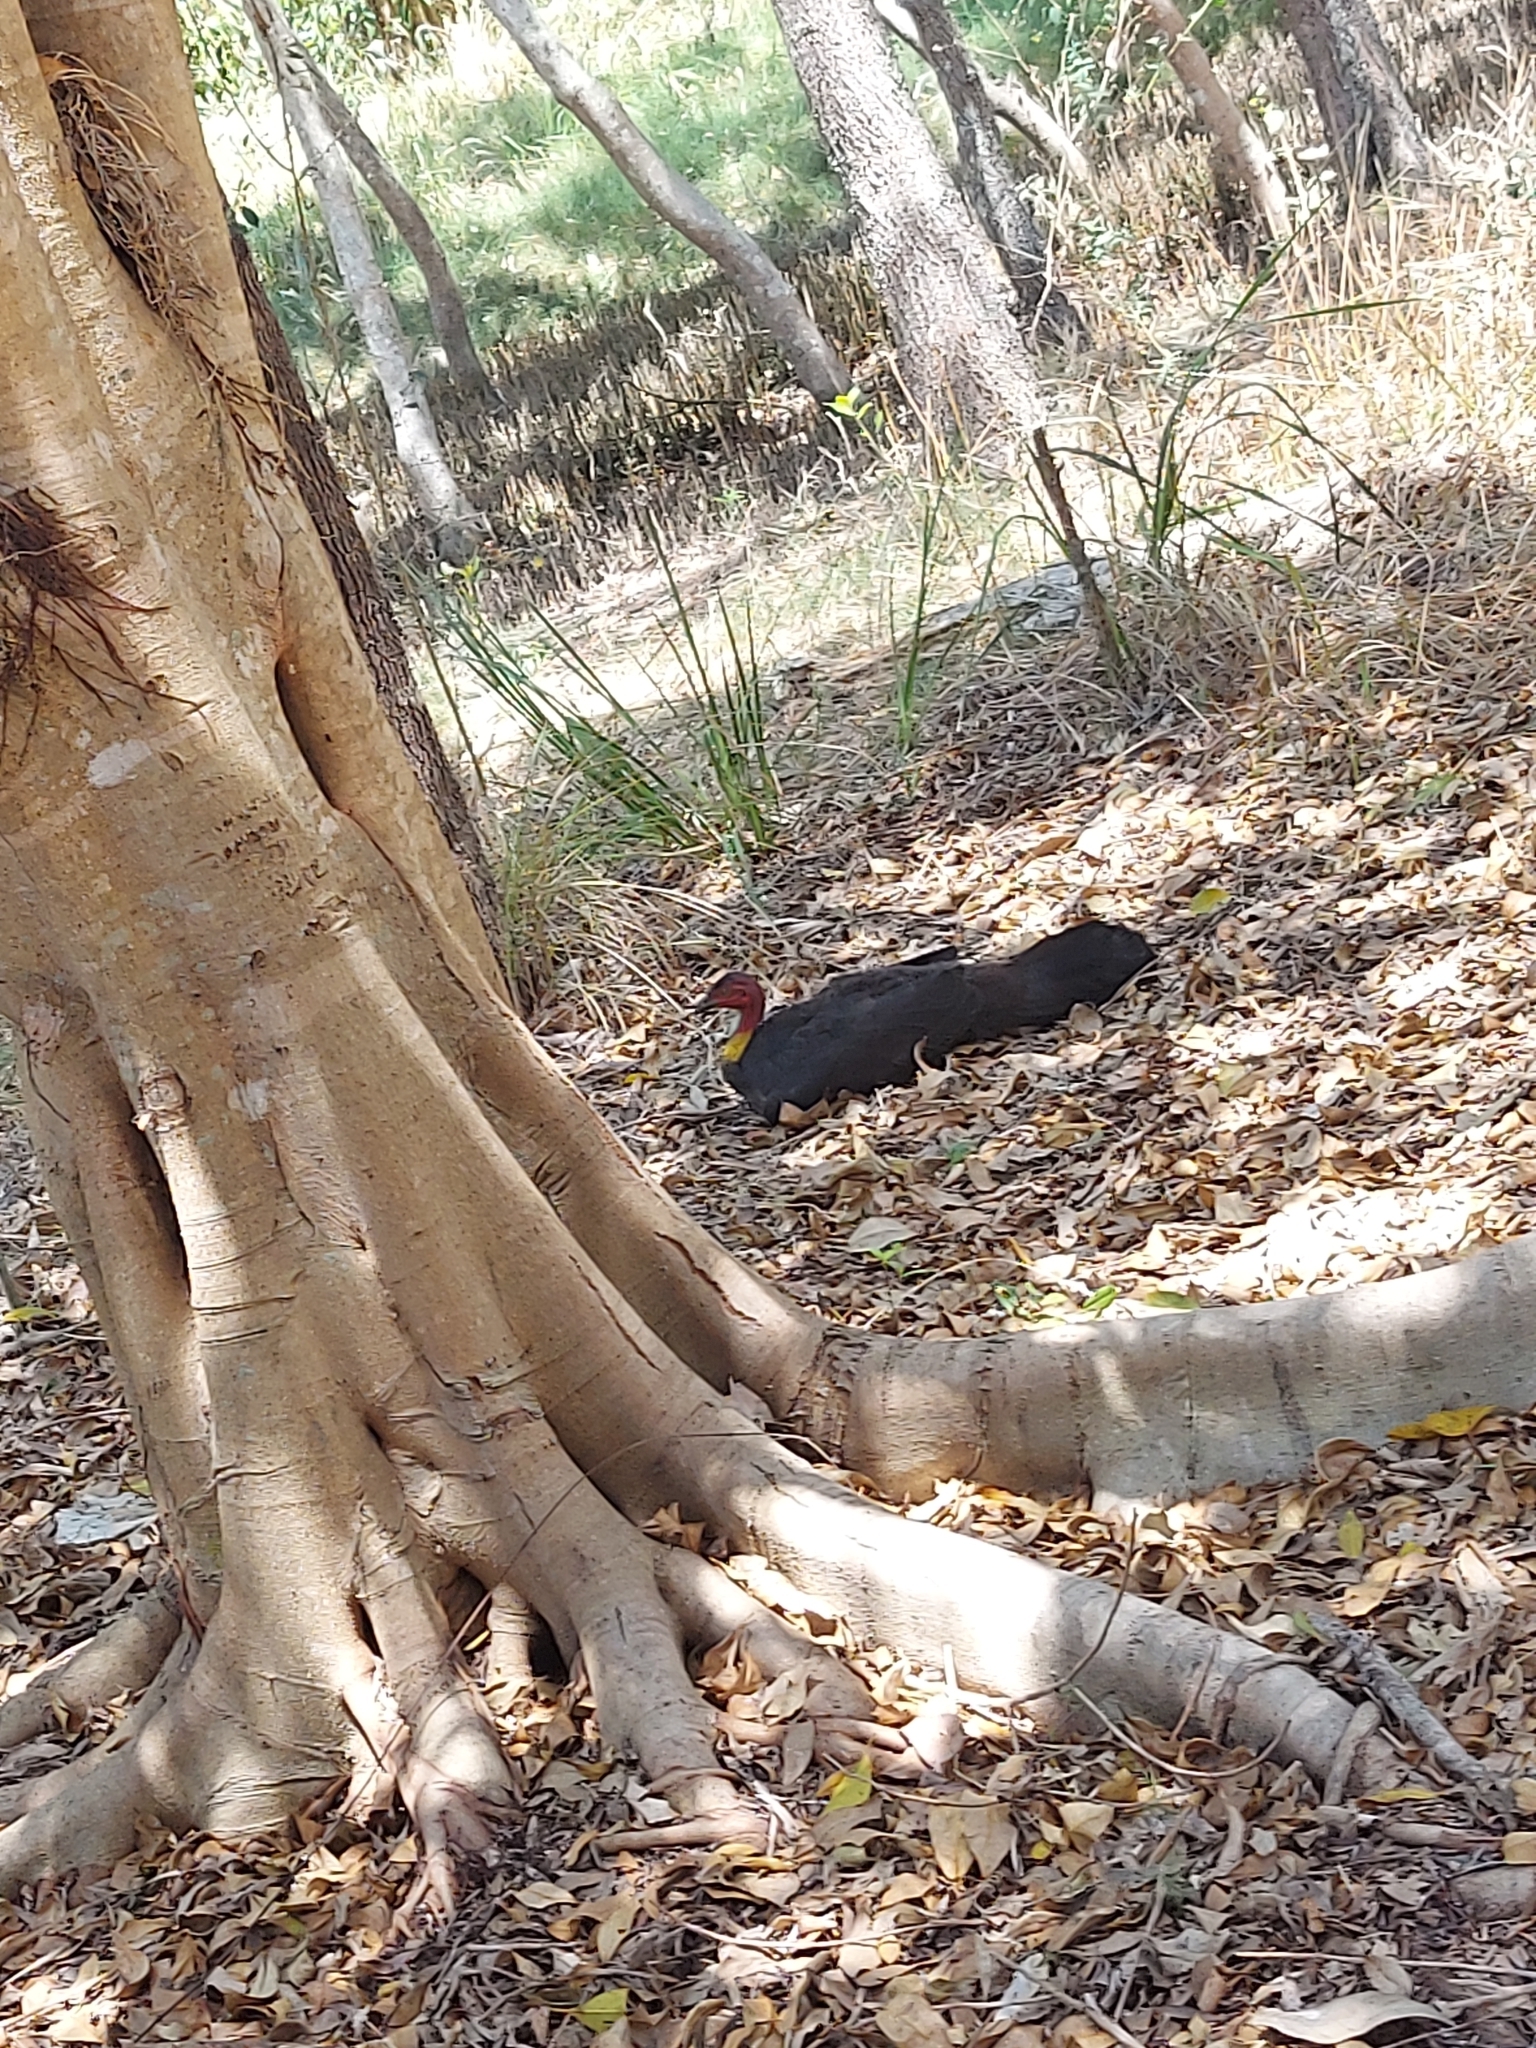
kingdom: Animalia
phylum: Chordata
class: Aves
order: Galliformes
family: Megapodiidae
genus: Alectura
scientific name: Alectura lathami
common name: Australian brushturkey
